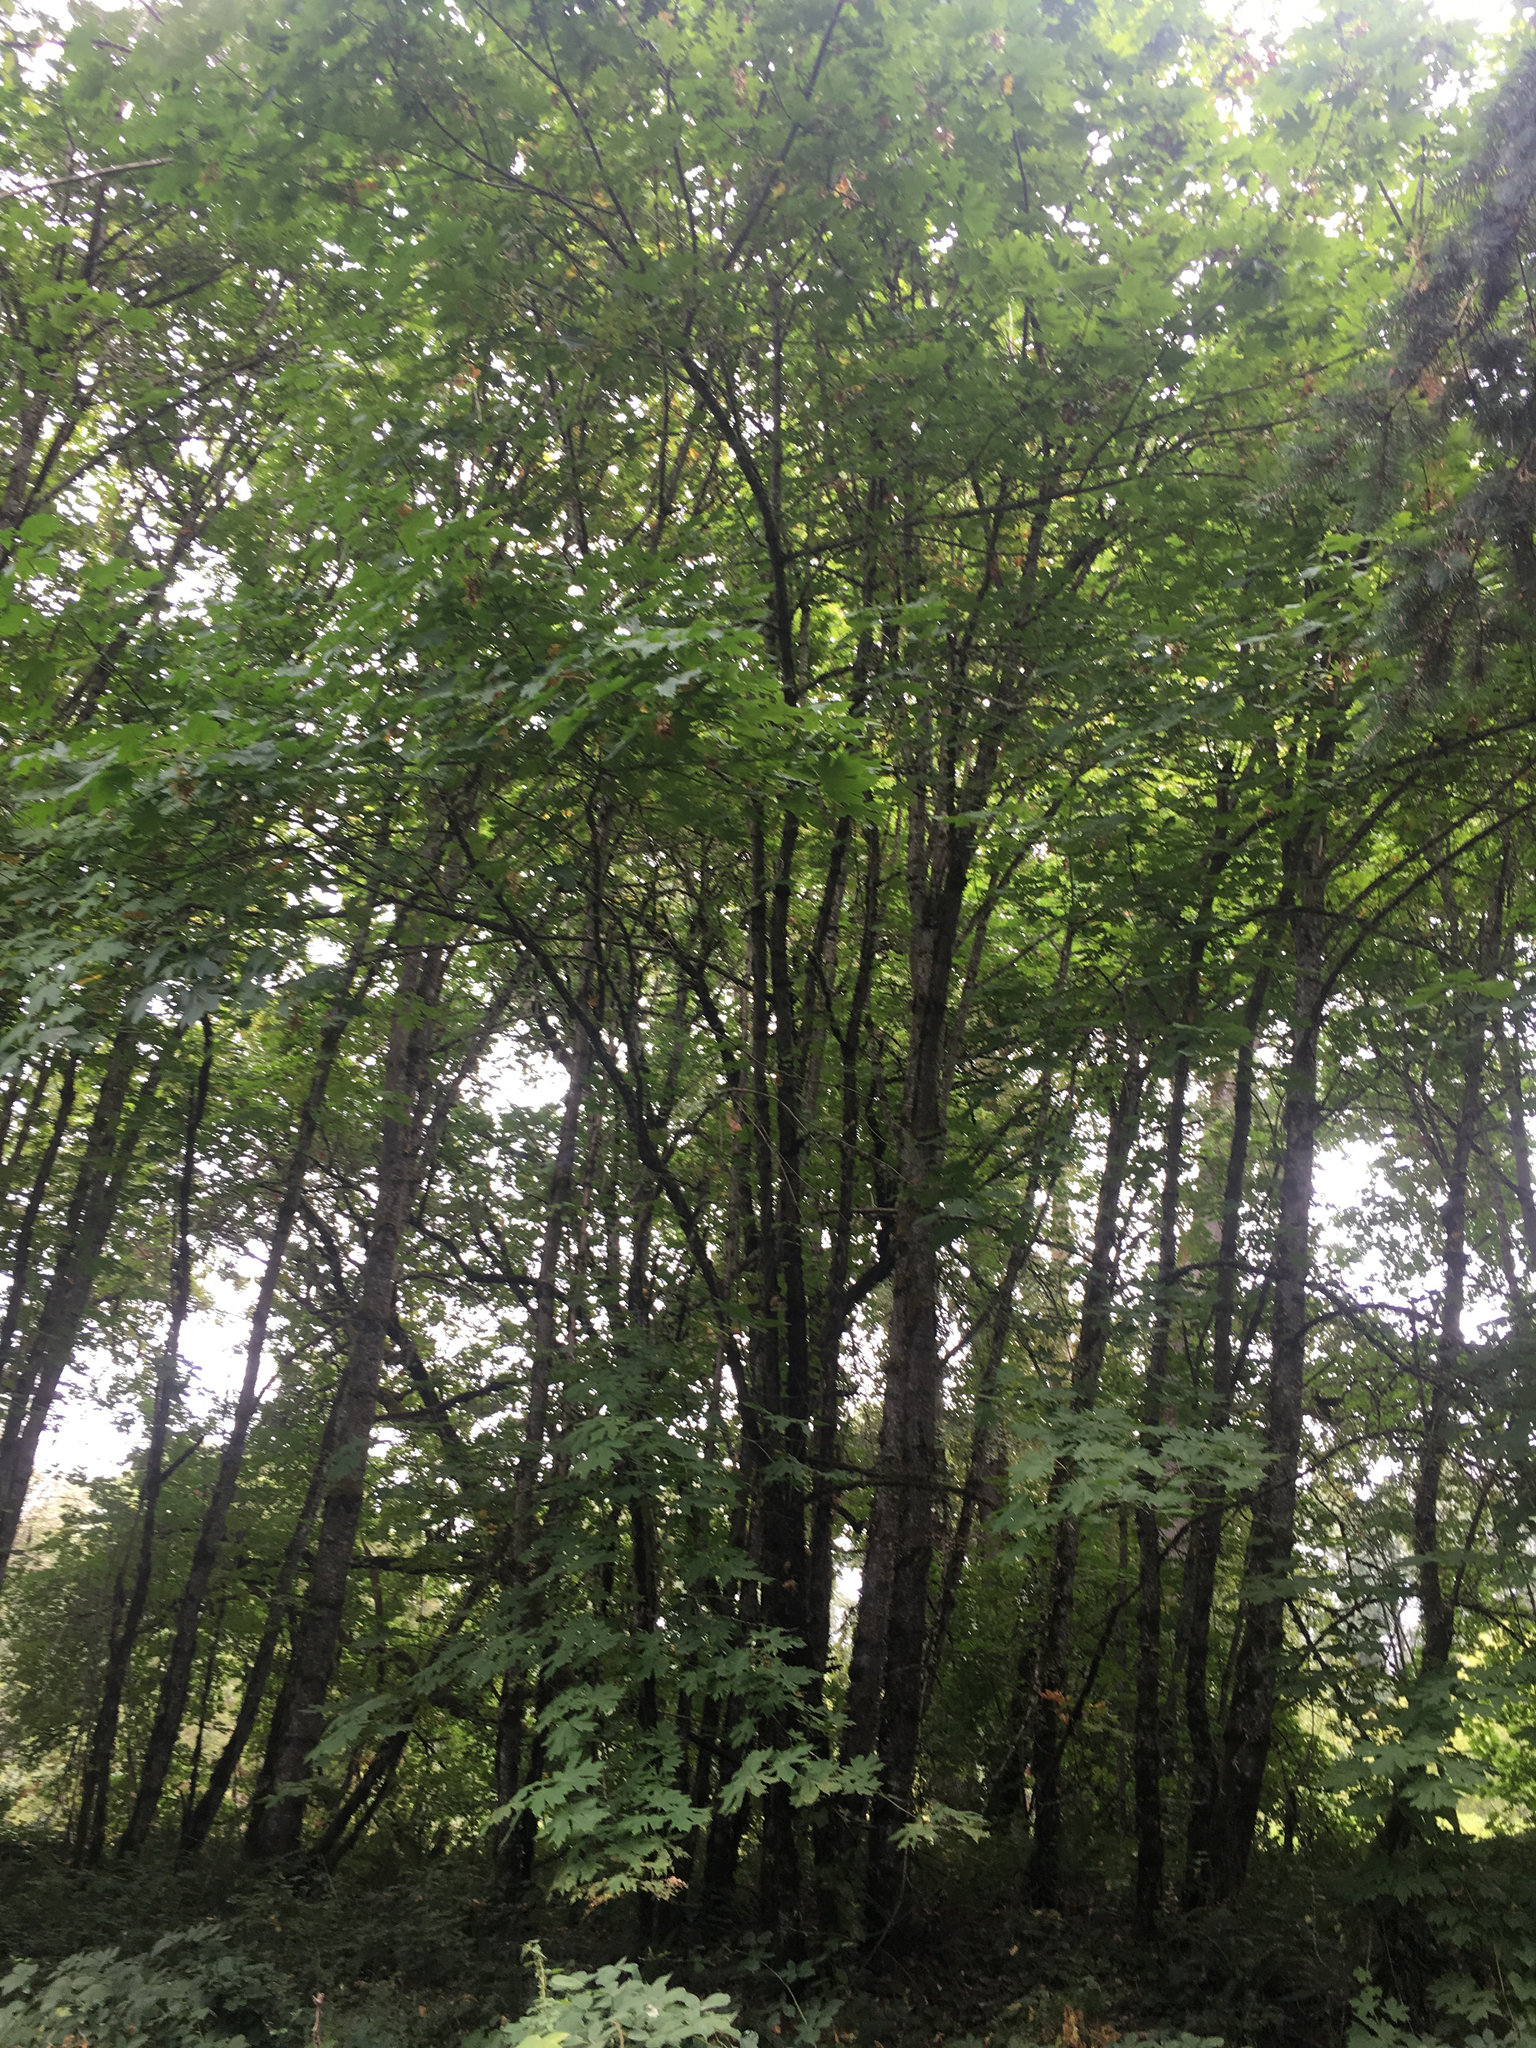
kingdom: Plantae
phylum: Tracheophyta
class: Magnoliopsida
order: Sapindales
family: Sapindaceae
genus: Acer
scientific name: Acer macrophyllum
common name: Oregon maple
